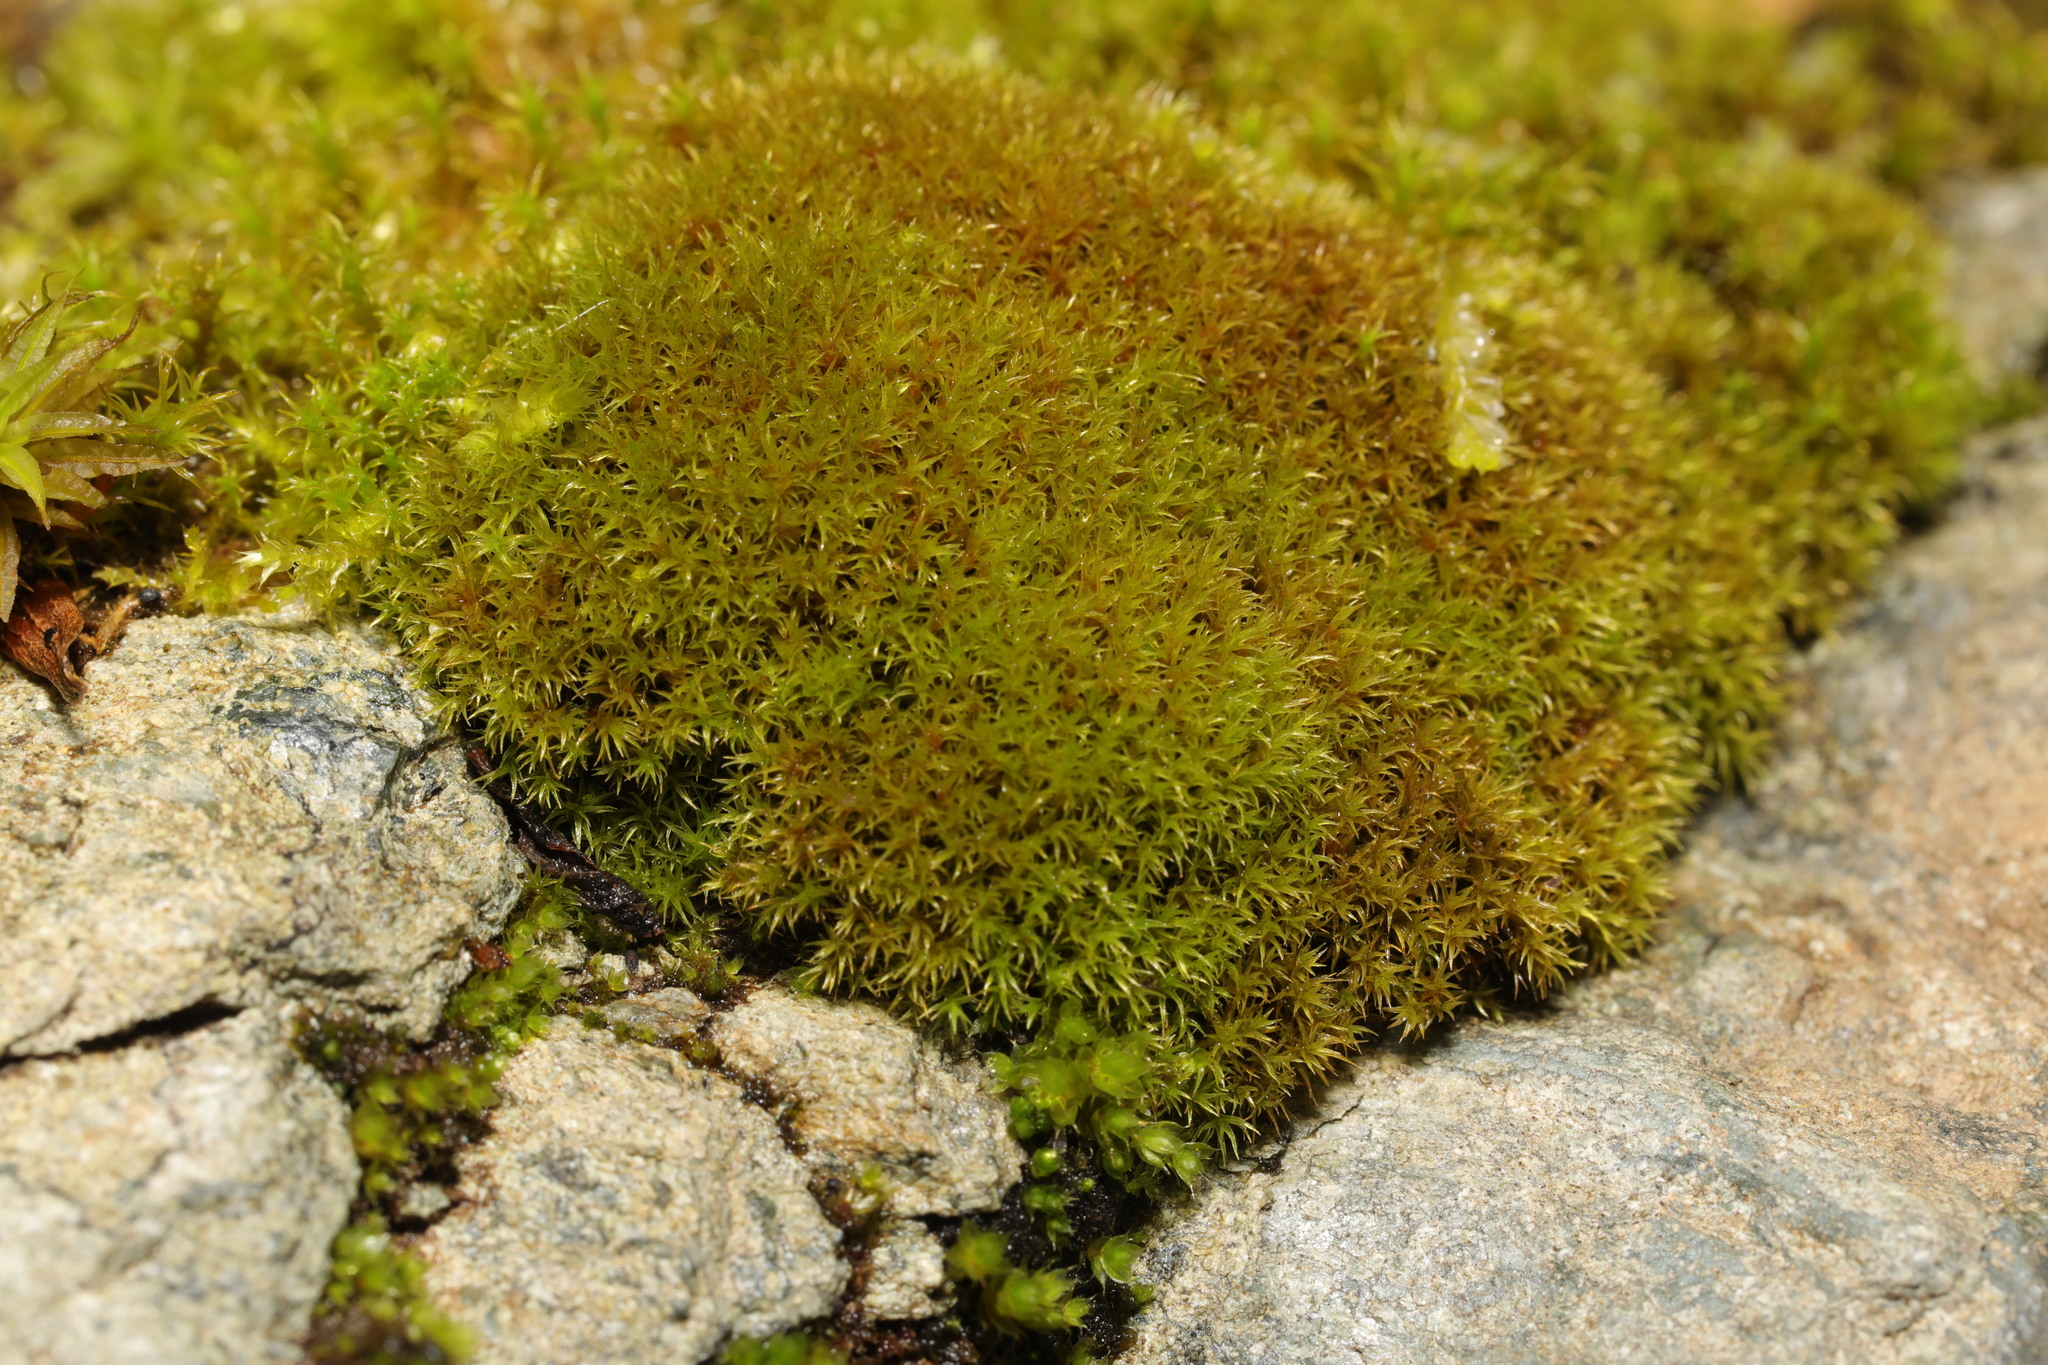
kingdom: Plantae
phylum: Bryophyta
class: Bryopsida
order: Dicranales
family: Ditrichaceae
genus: Ceratodon
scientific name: Ceratodon purpureus
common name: Redshank
